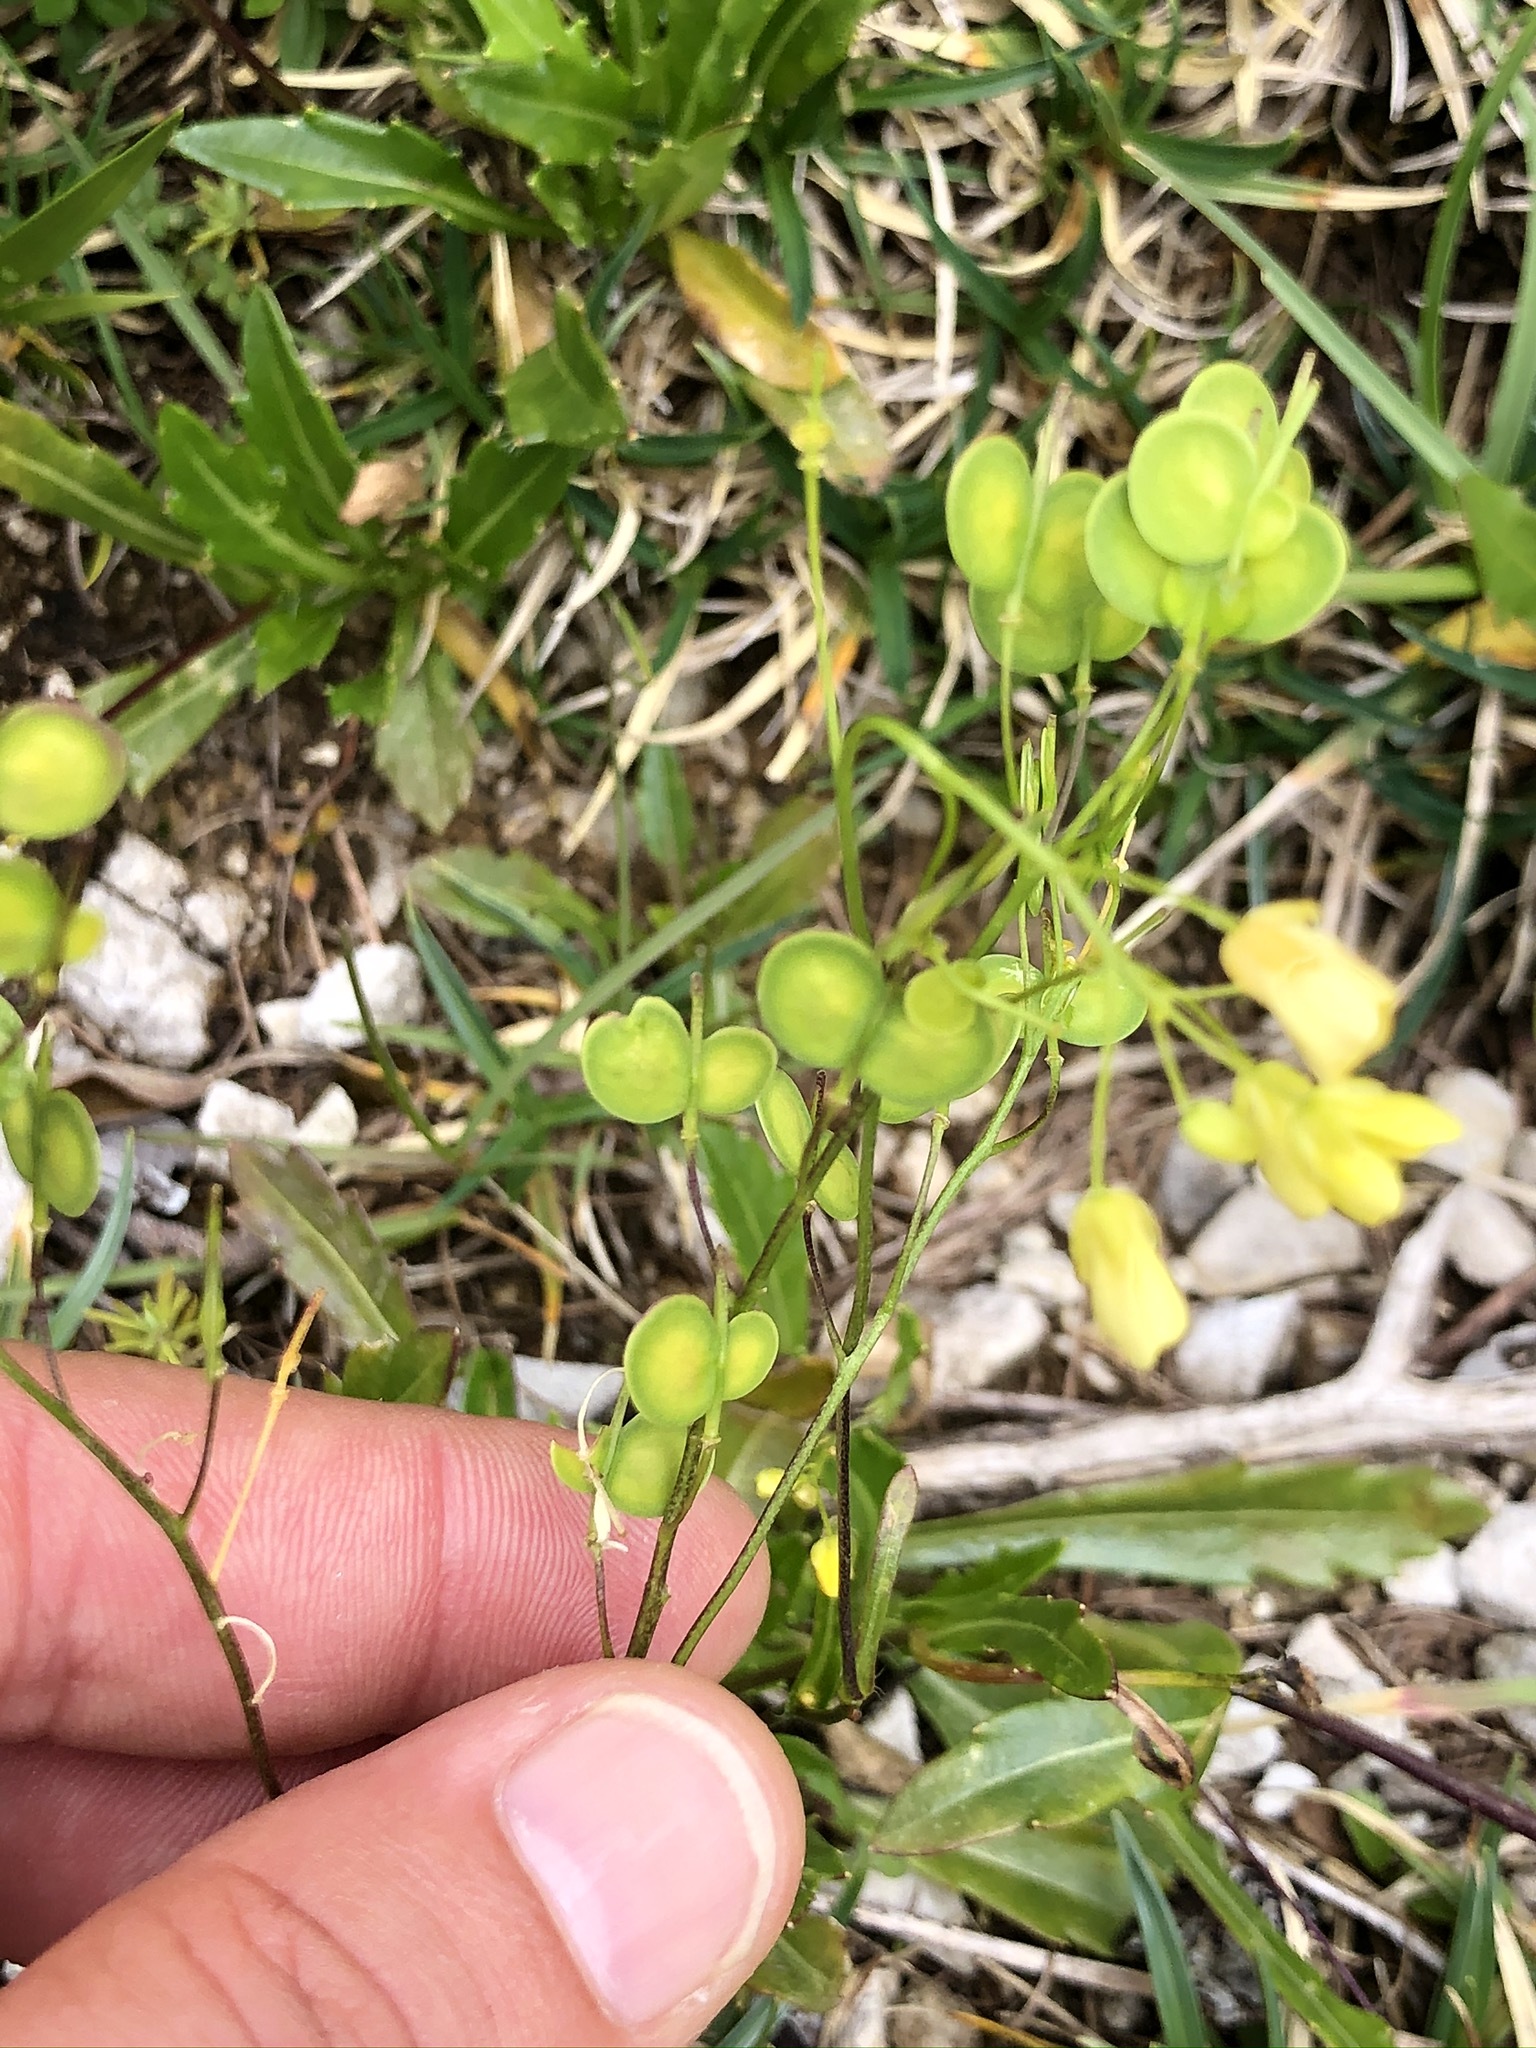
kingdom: Plantae
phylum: Tracheophyta
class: Magnoliopsida
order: Brassicales
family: Brassicaceae
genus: Biscutella
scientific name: Biscutella laevigata
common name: Buckler mustard
